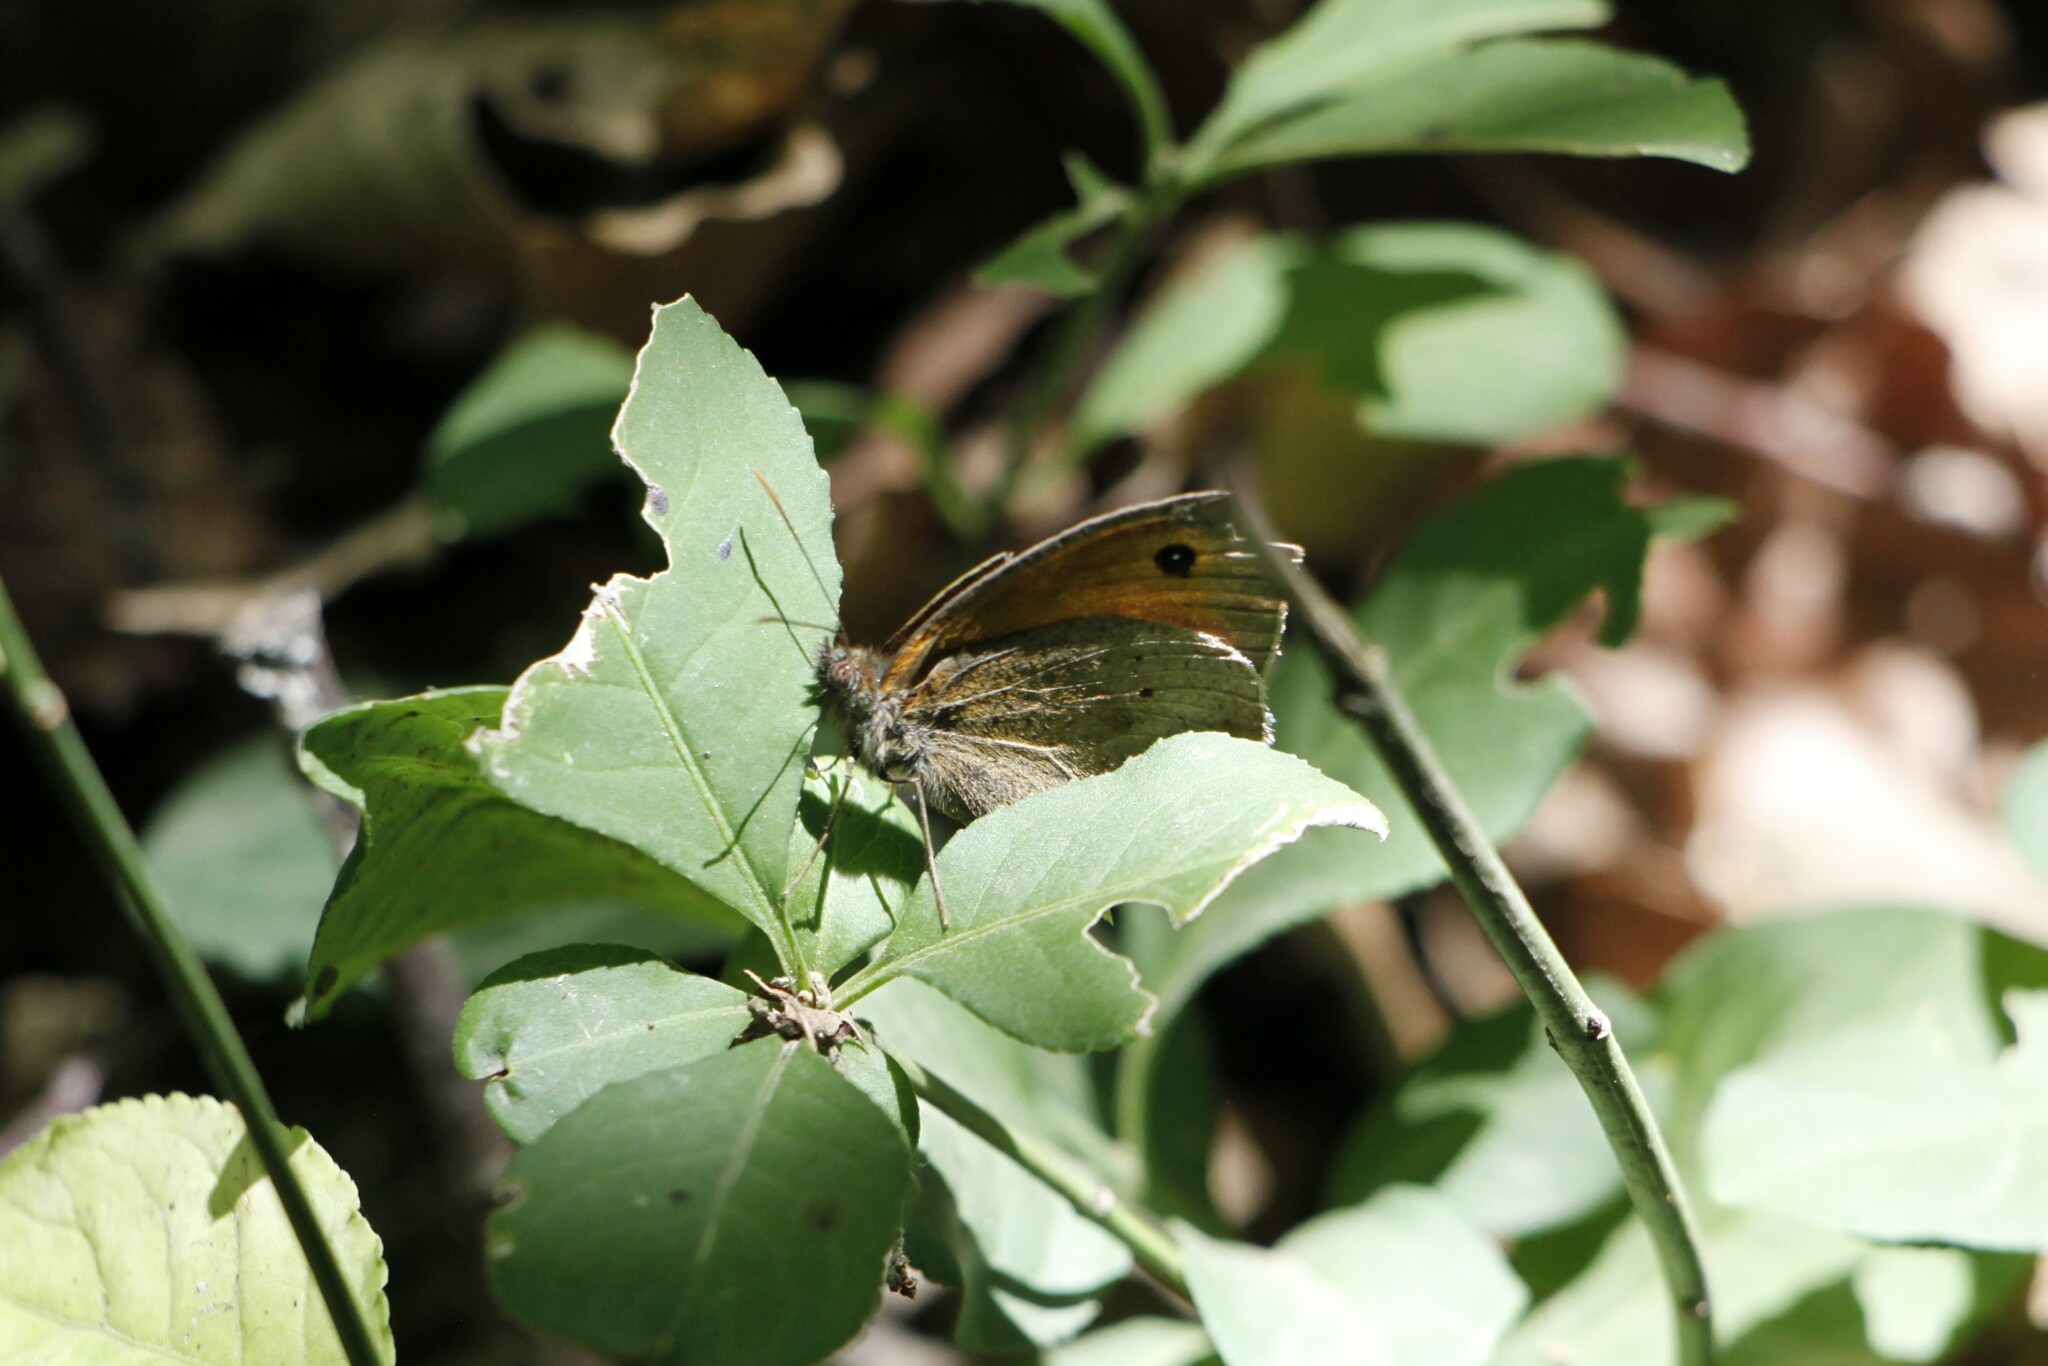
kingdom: Animalia
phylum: Arthropoda
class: Insecta
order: Lepidoptera
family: Nymphalidae
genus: Maniola
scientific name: Maniola jurtina
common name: Meadow brown
